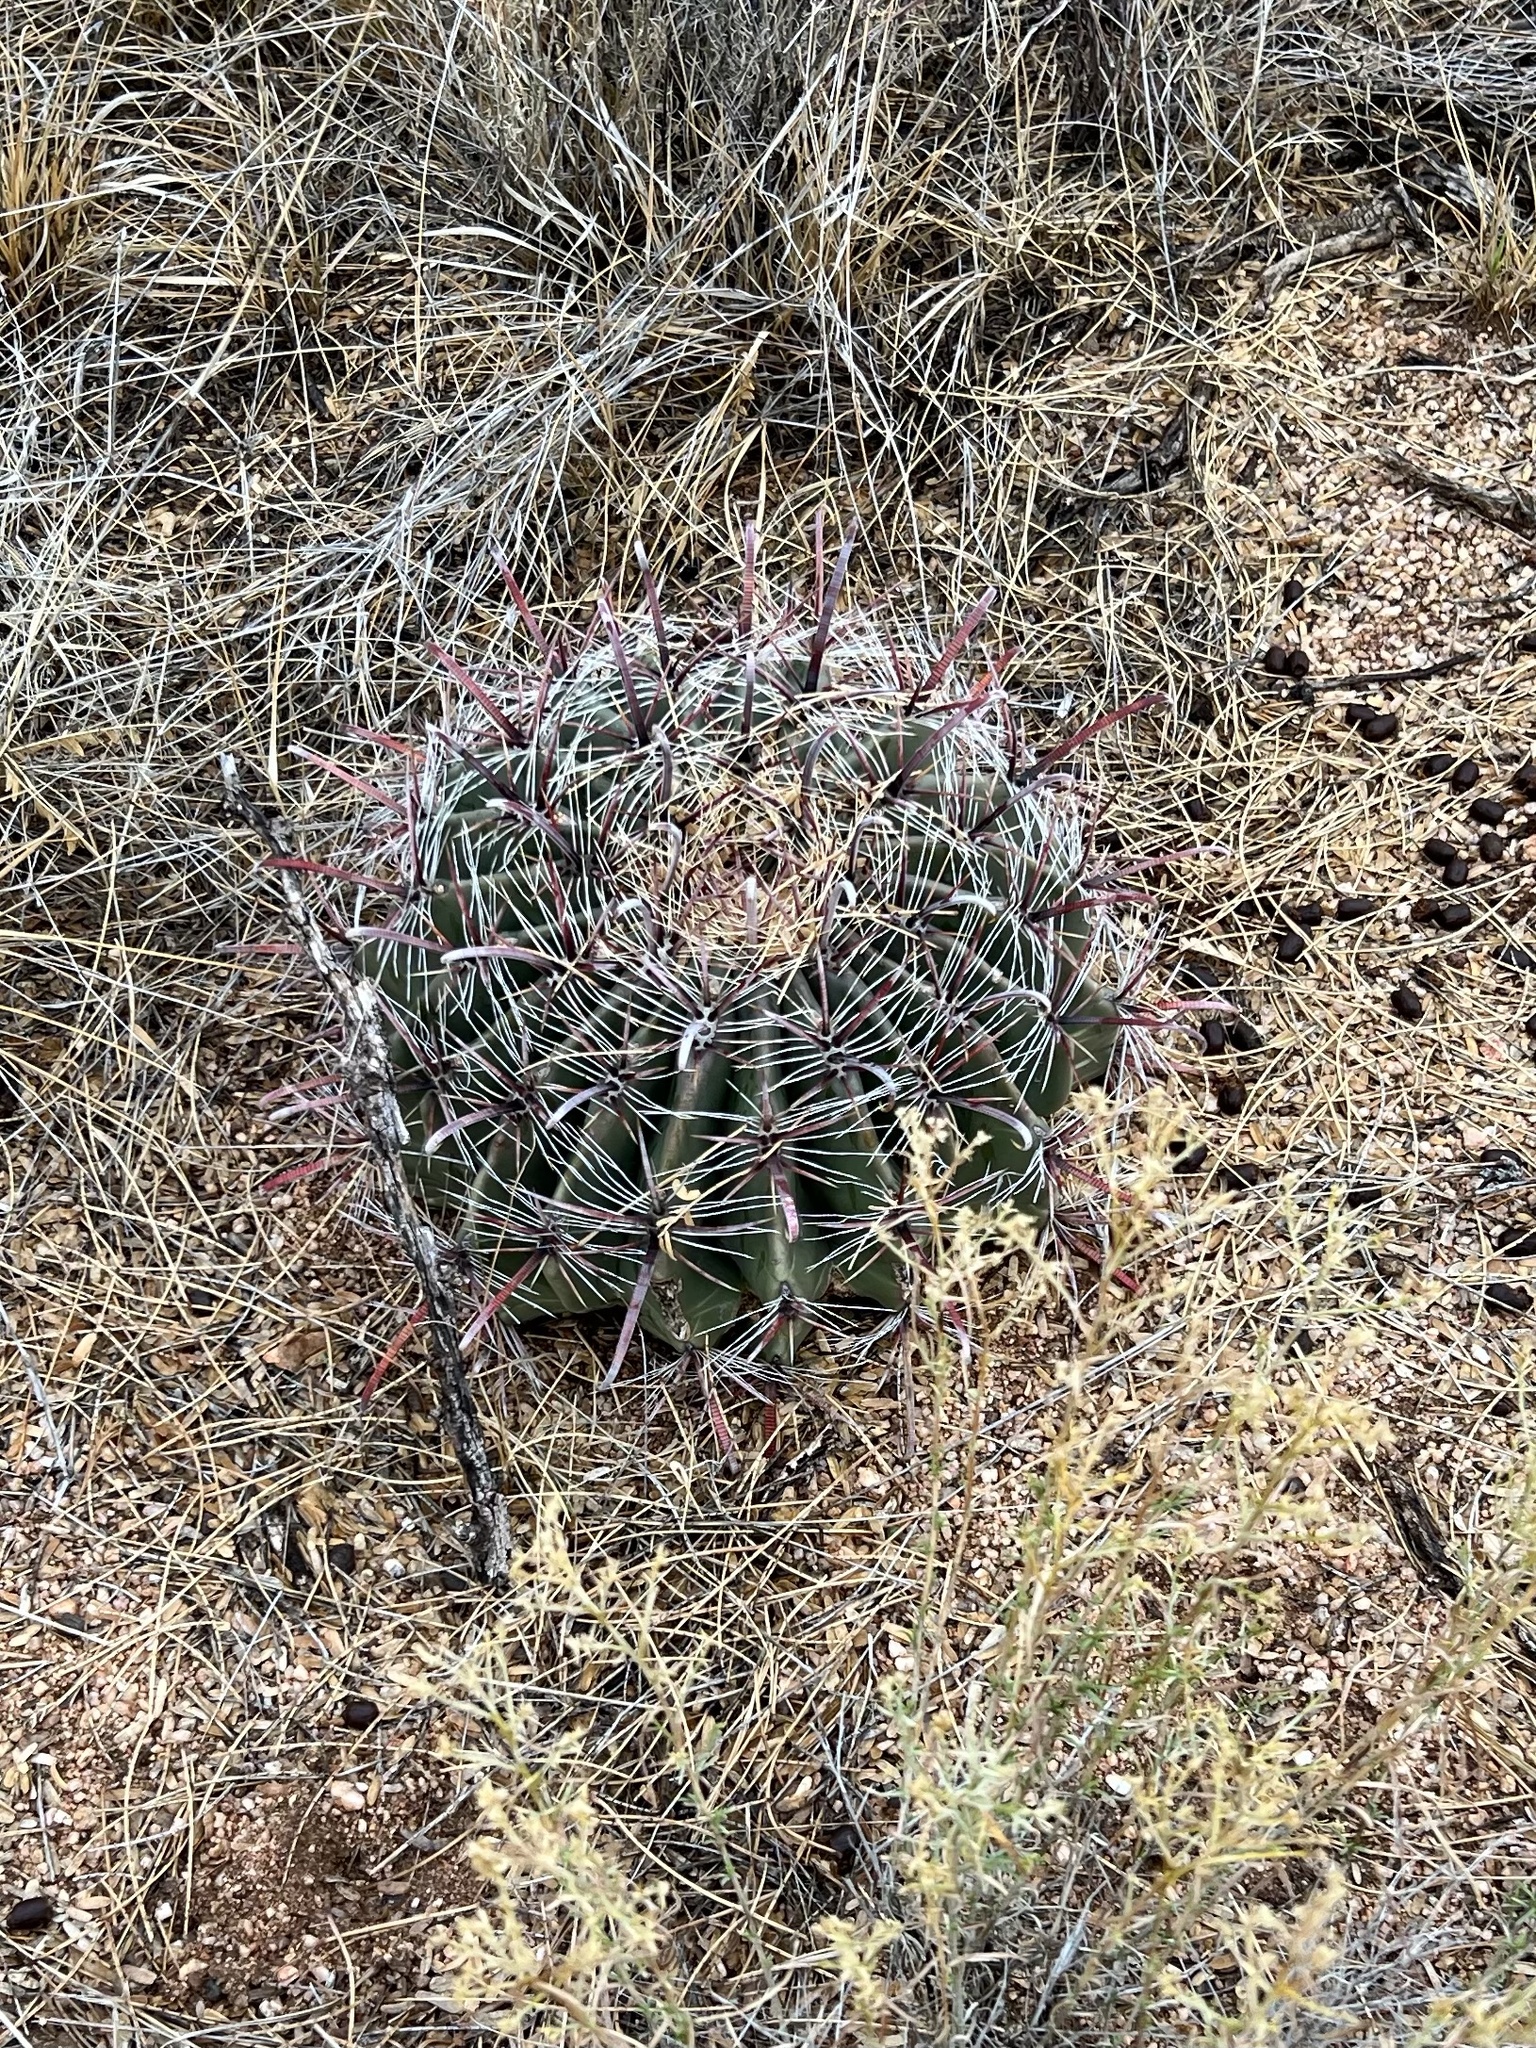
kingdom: Plantae
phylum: Tracheophyta
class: Magnoliopsida
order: Caryophyllales
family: Cactaceae
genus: Ferocactus
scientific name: Ferocactus wislizeni
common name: Candy barrel cactus
